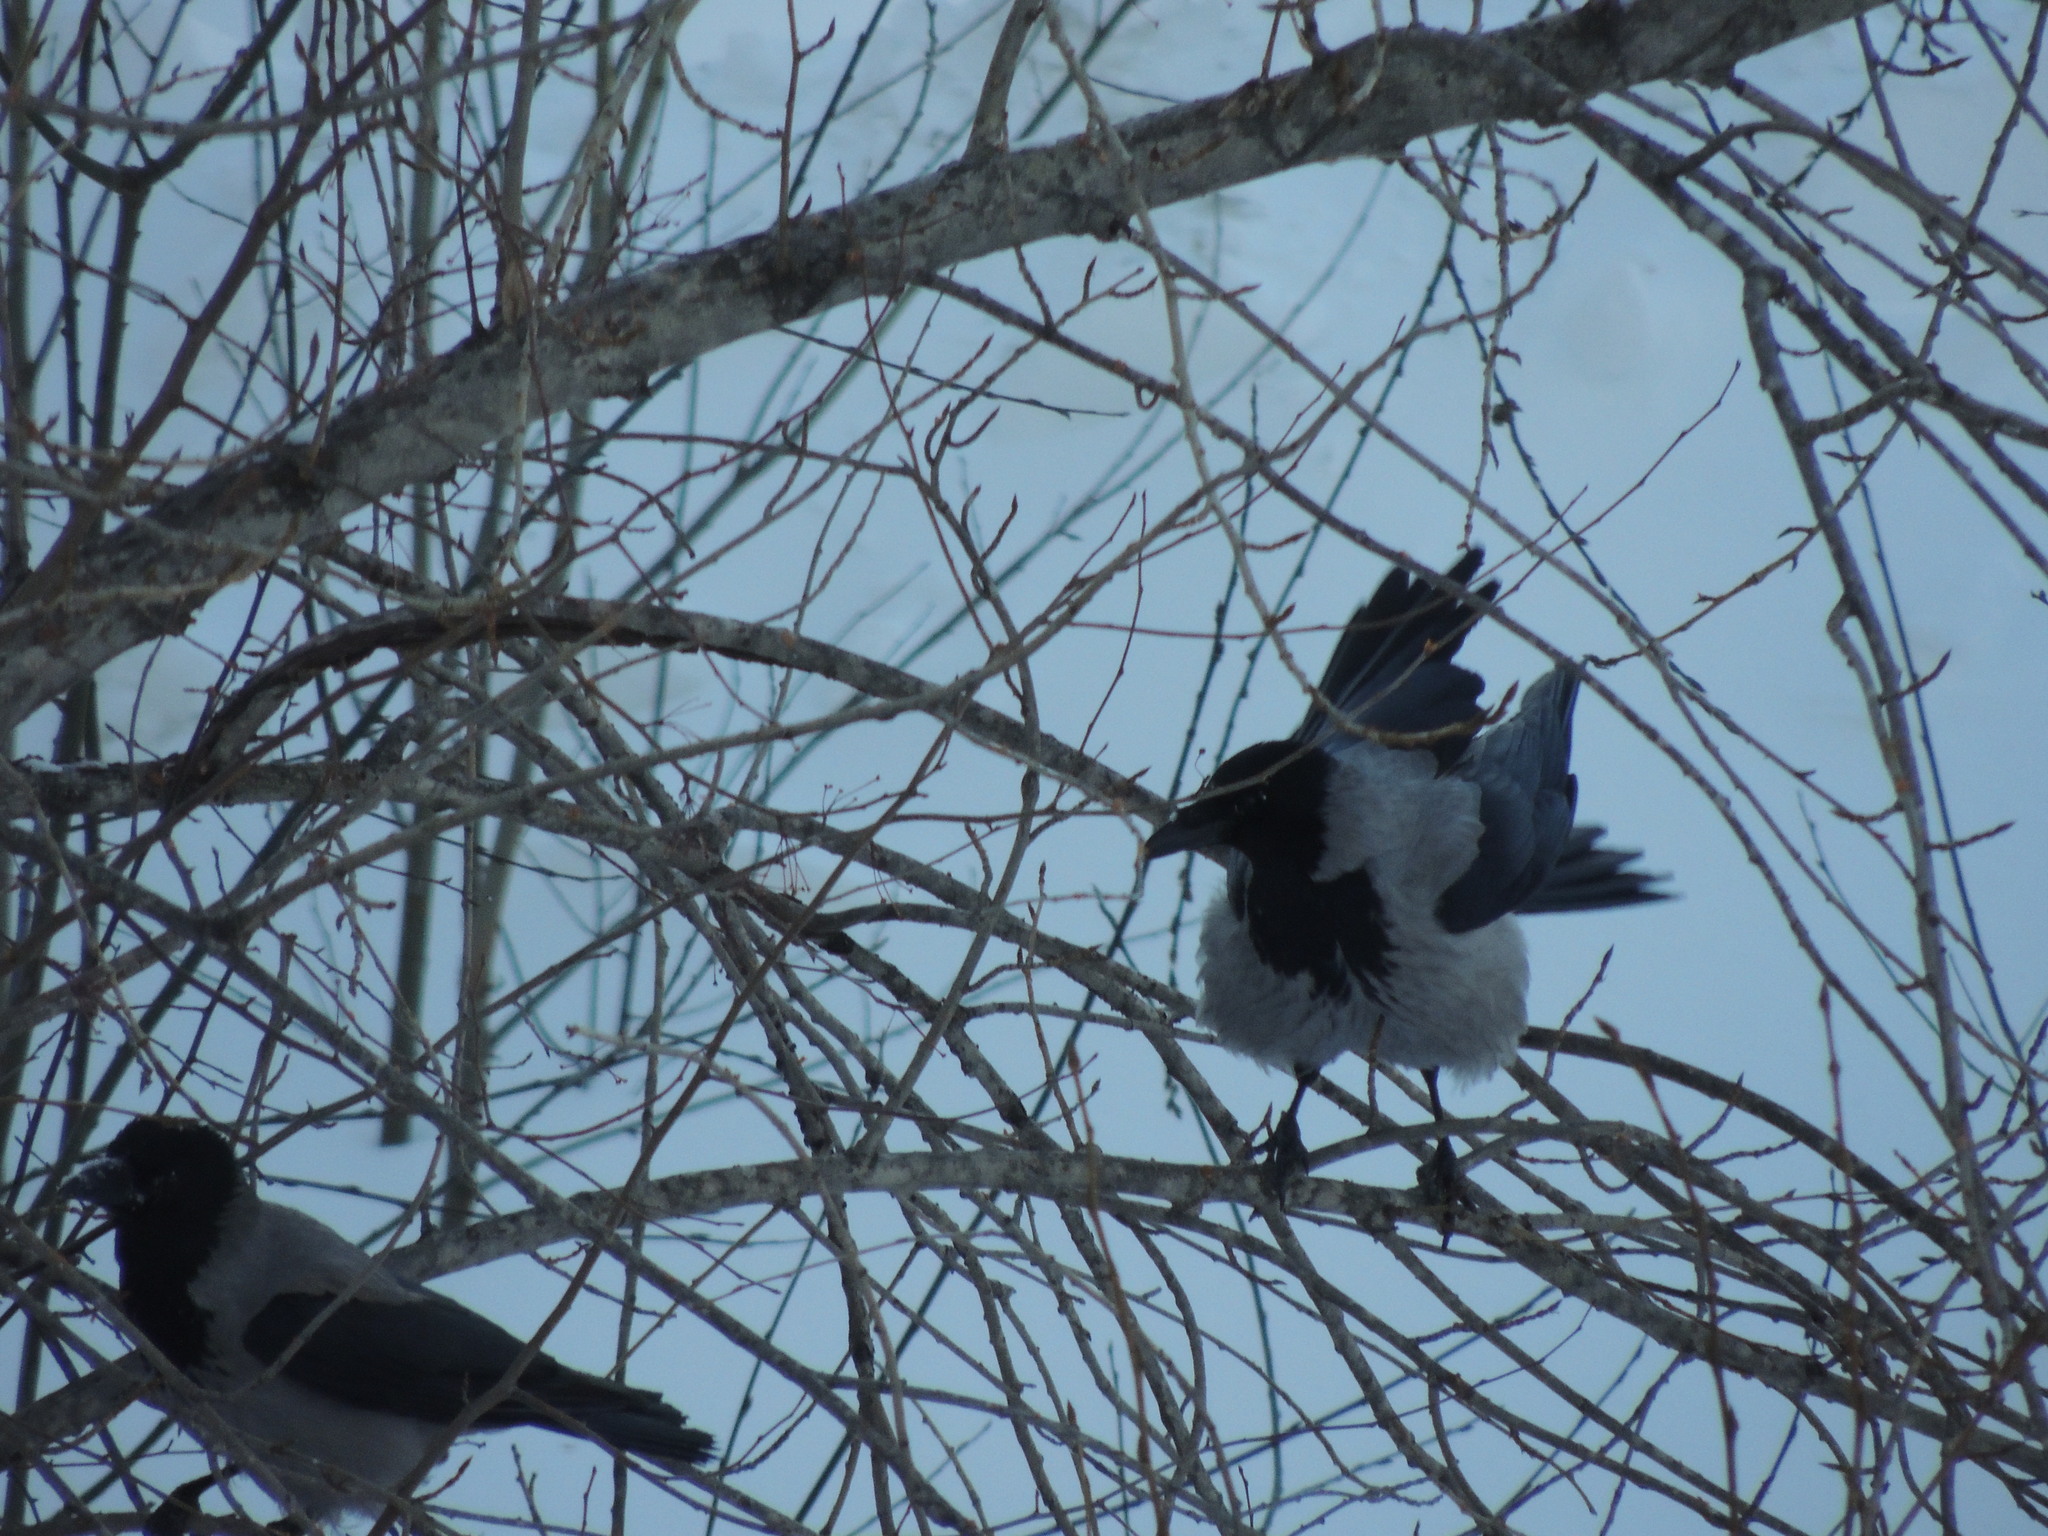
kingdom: Animalia
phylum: Chordata
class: Aves
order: Passeriformes
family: Corvidae
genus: Corvus
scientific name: Corvus cornix
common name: Hooded crow
